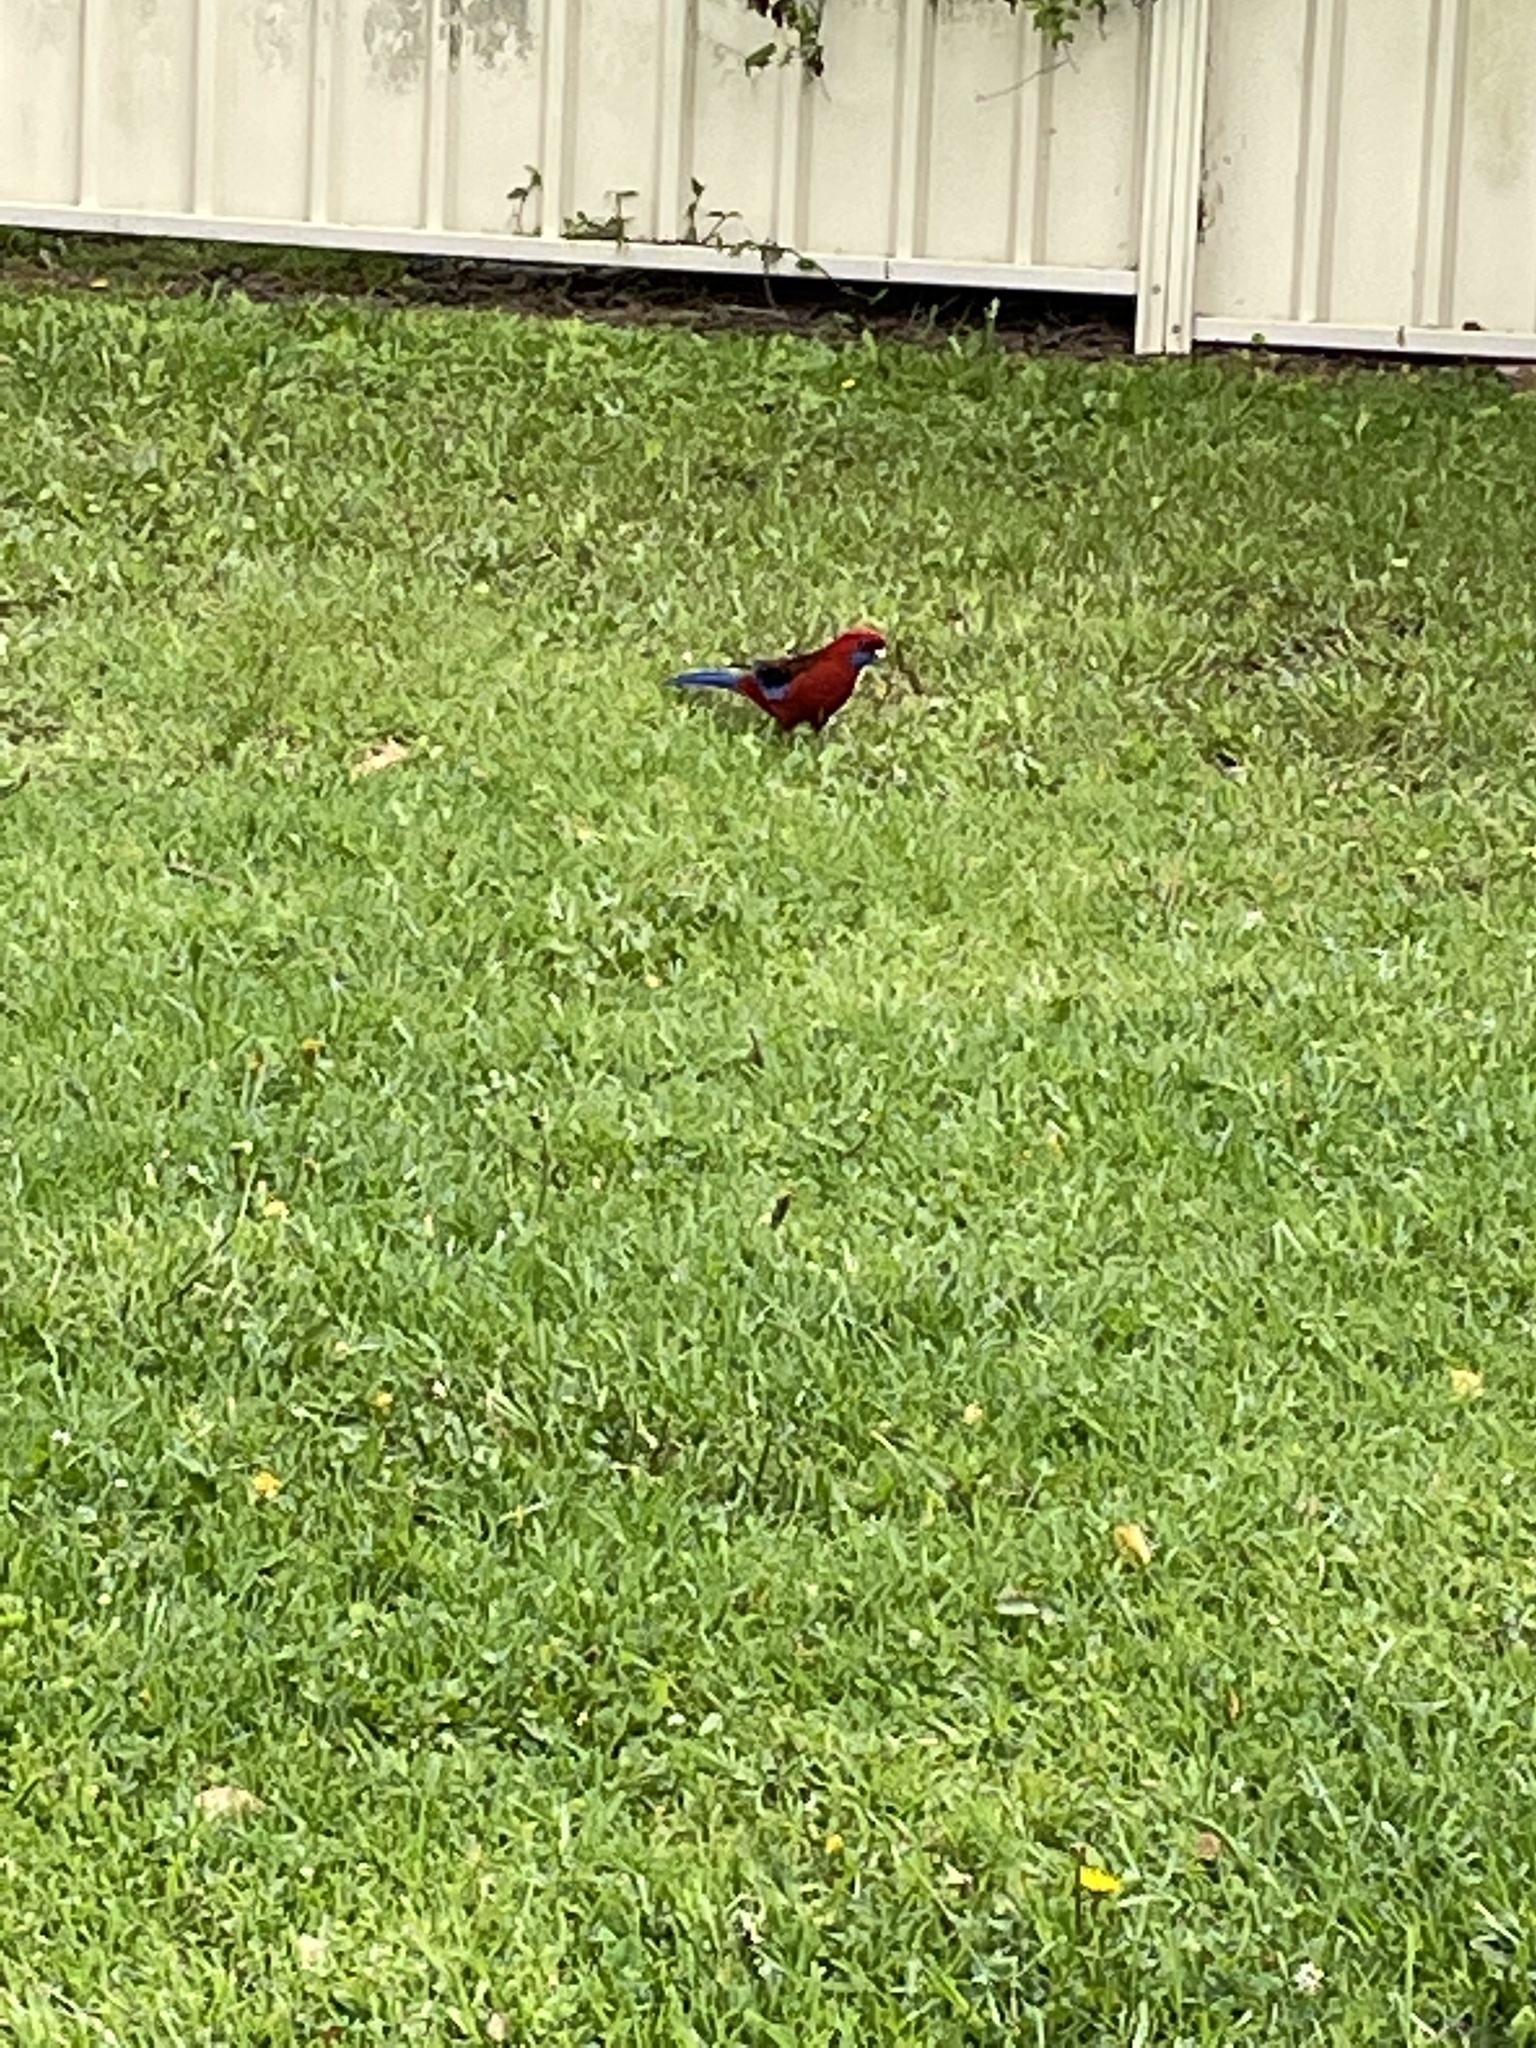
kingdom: Animalia
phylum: Chordata
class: Aves
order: Psittaciformes
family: Psittacidae
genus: Platycercus
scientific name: Platycercus elegans
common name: Crimson rosella
